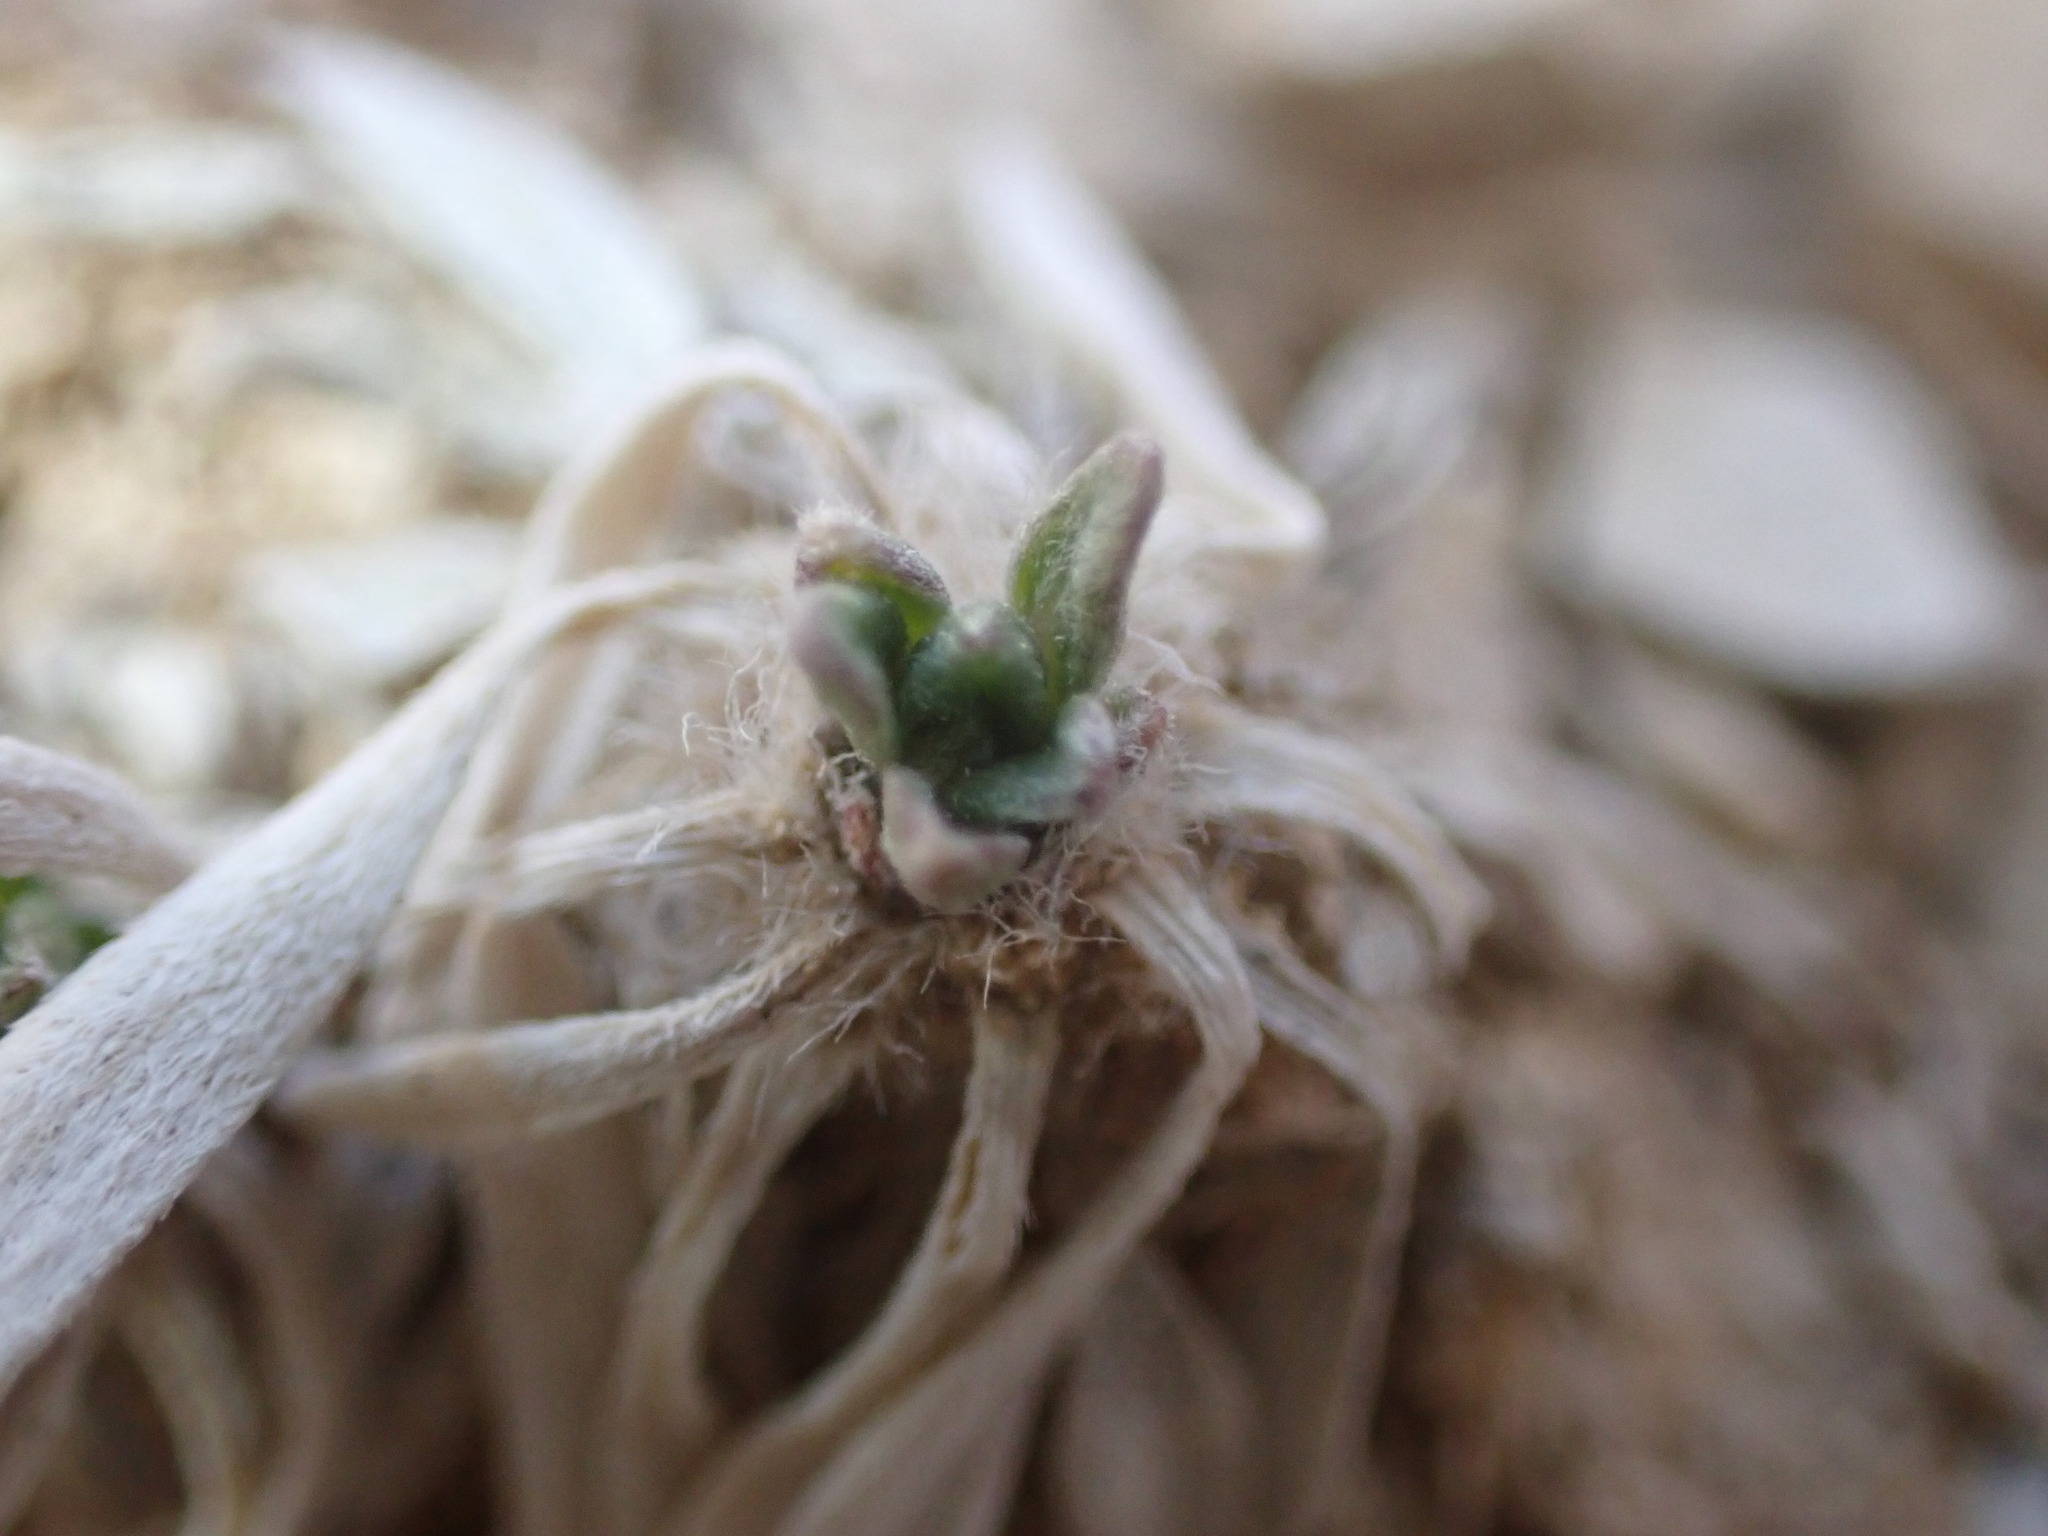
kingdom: Plantae
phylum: Tracheophyta
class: Magnoliopsida
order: Asterales
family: Asteraceae
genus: Parthenium
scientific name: Parthenium tetraneuris
